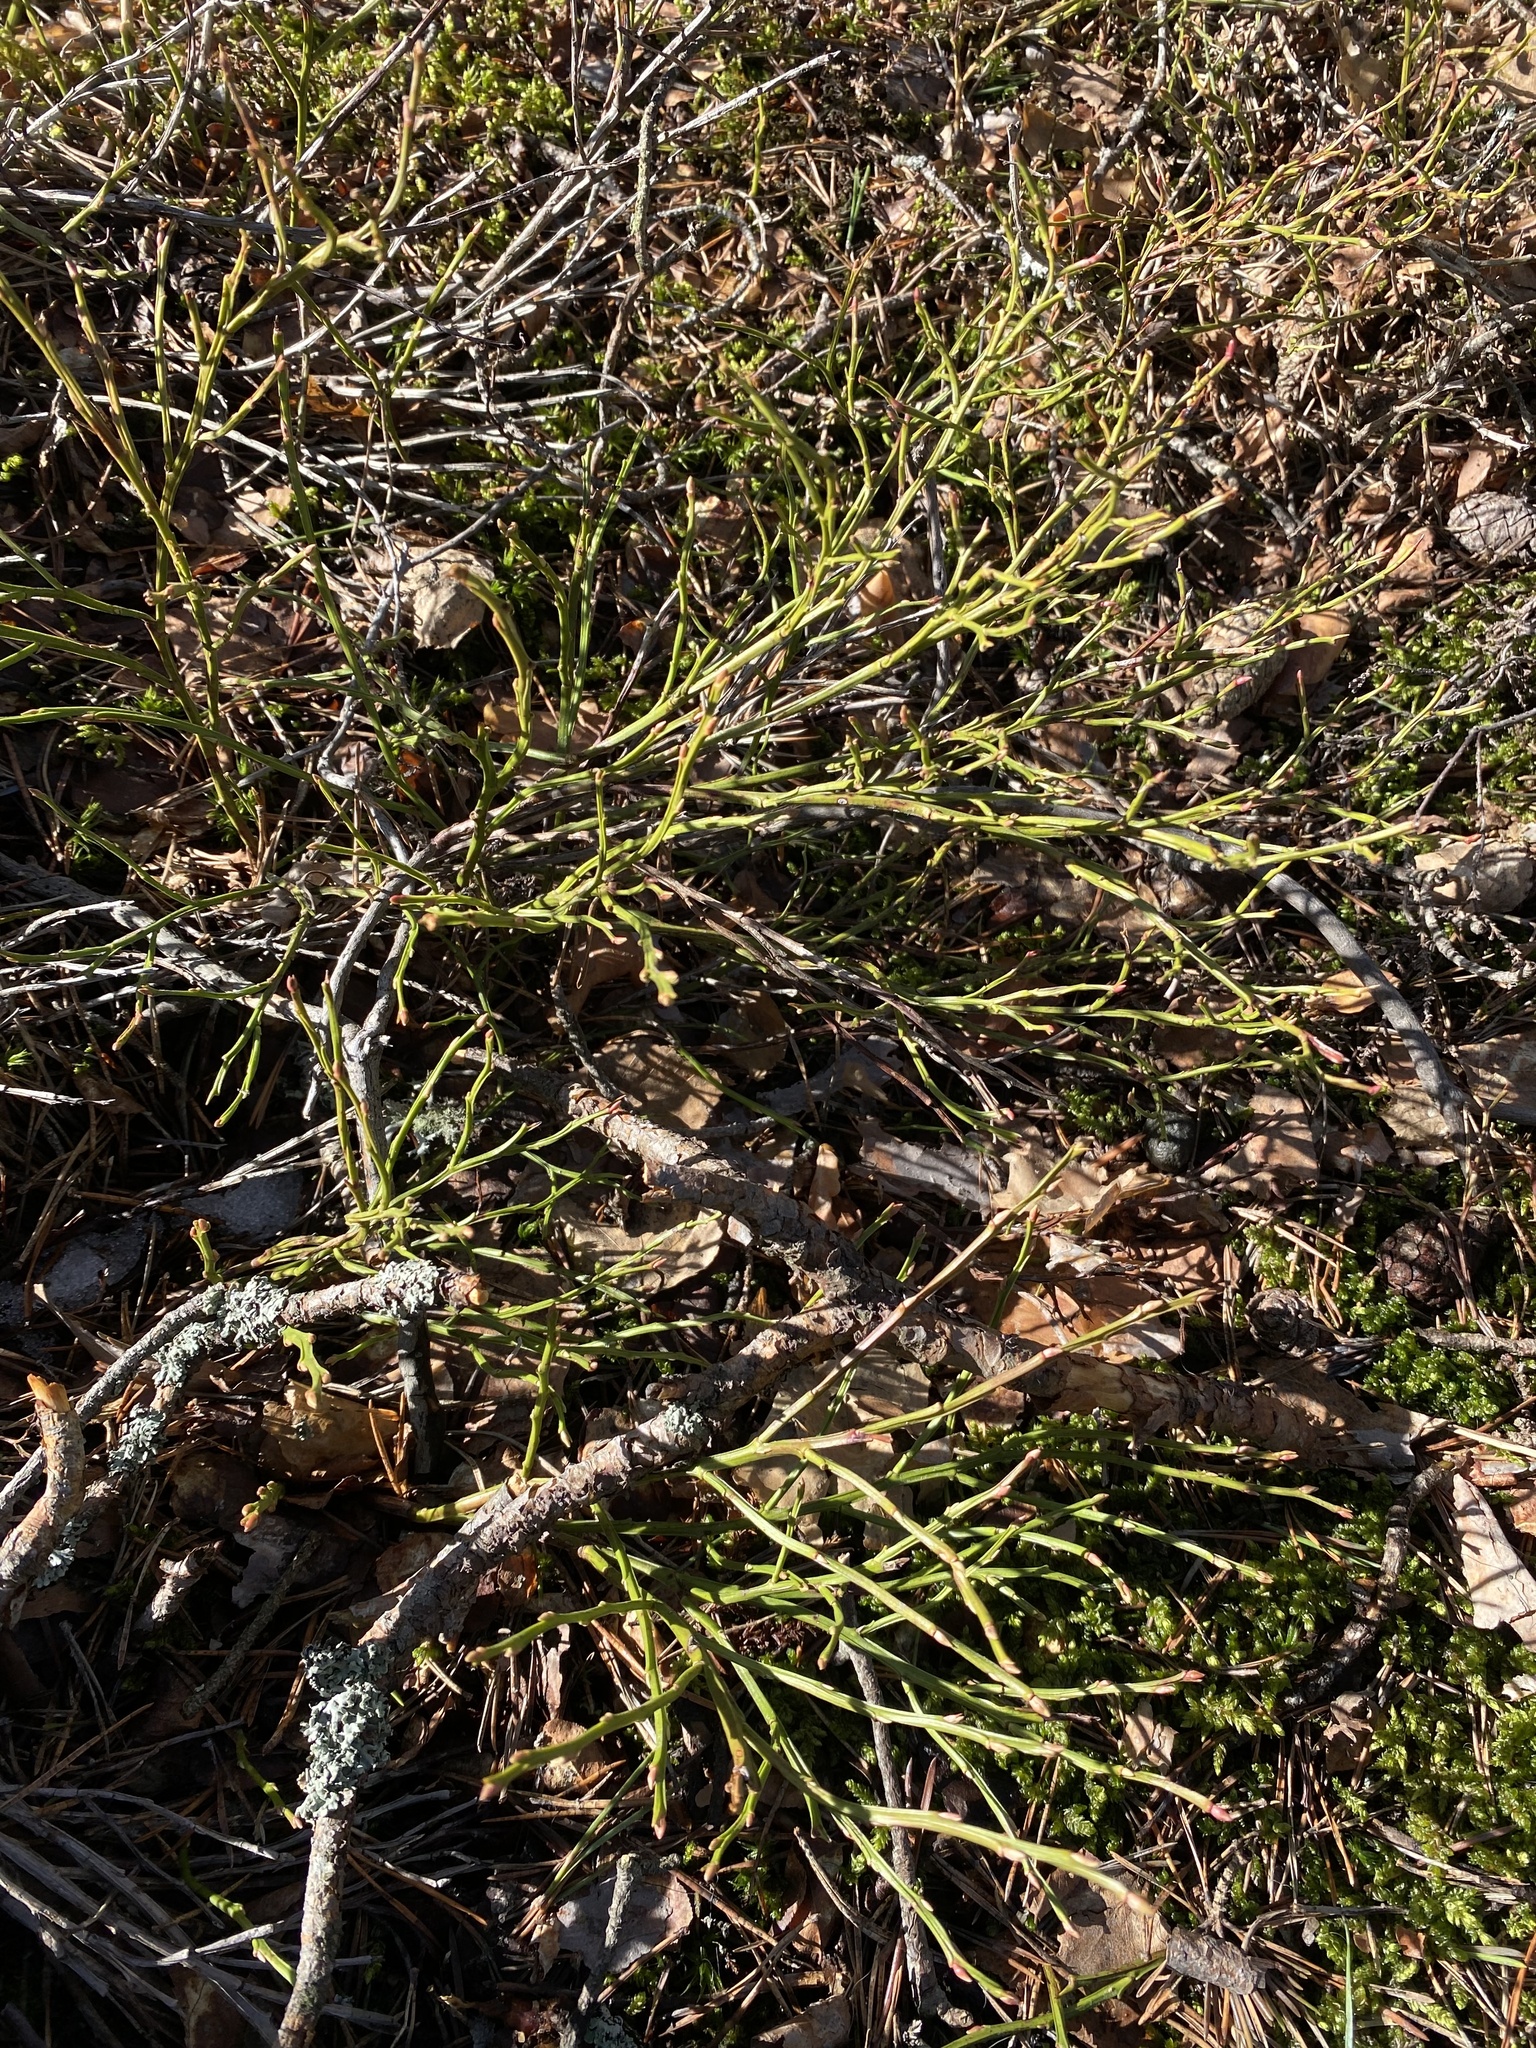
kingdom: Plantae
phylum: Tracheophyta
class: Magnoliopsida
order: Ericales
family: Ericaceae
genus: Vaccinium
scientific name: Vaccinium myrtillus
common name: Bilberry
